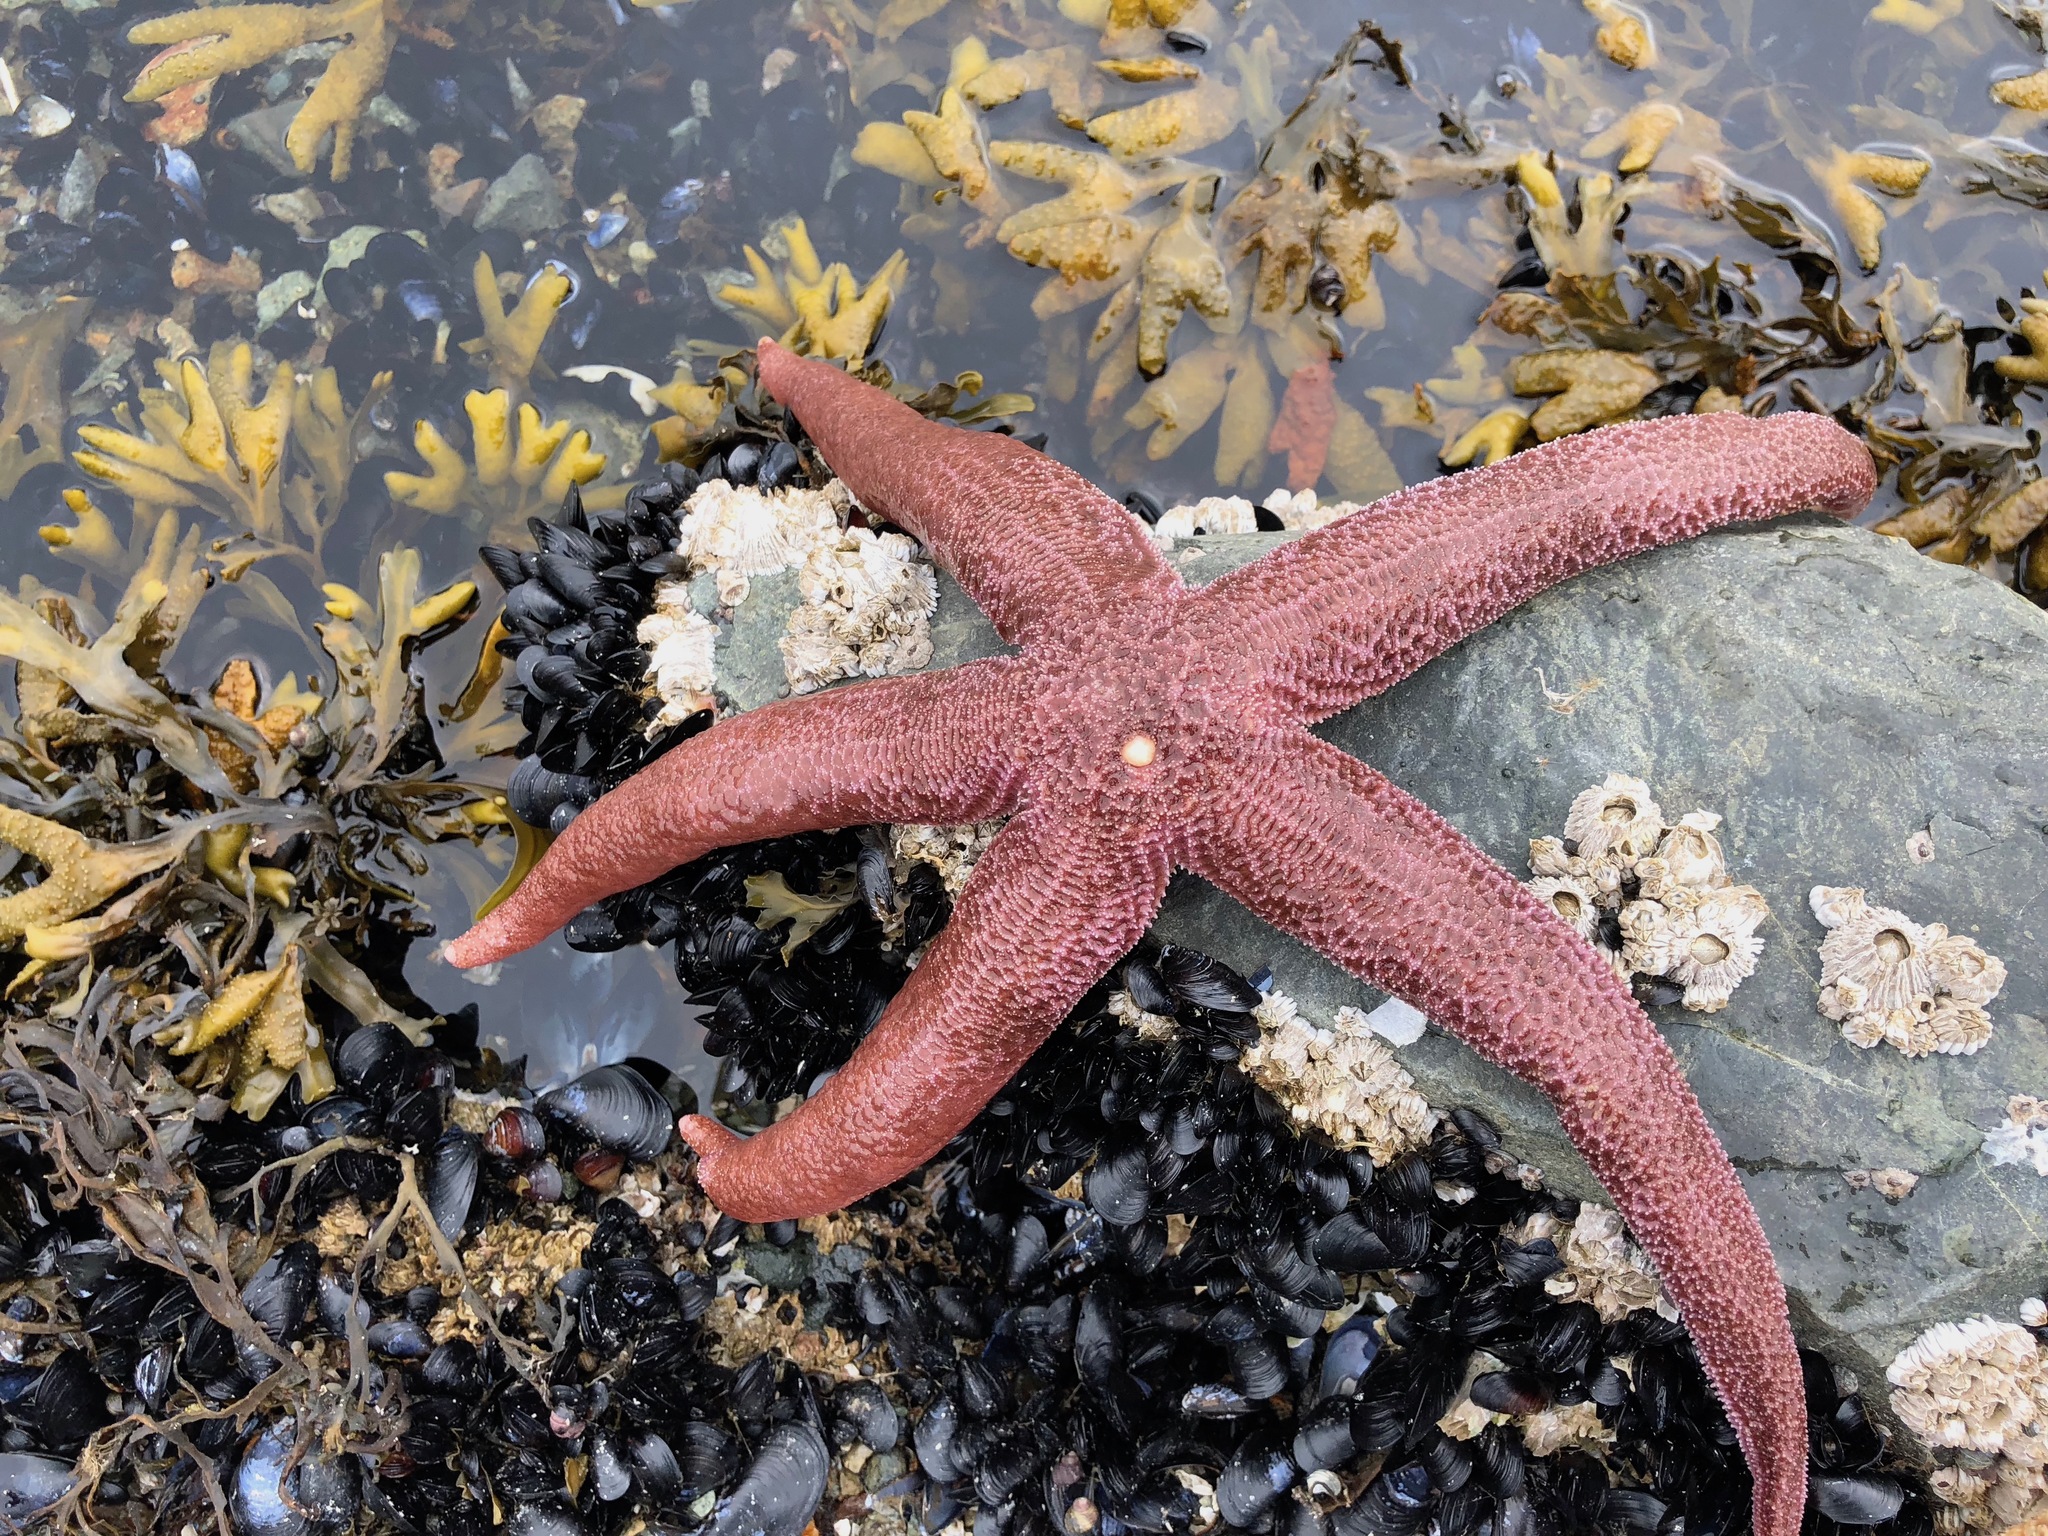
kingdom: Animalia
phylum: Echinodermata
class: Asteroidea
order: Forcipulatida
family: Asteriidae
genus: Evasterias
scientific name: Evasterias echinosoma
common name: Giant star
